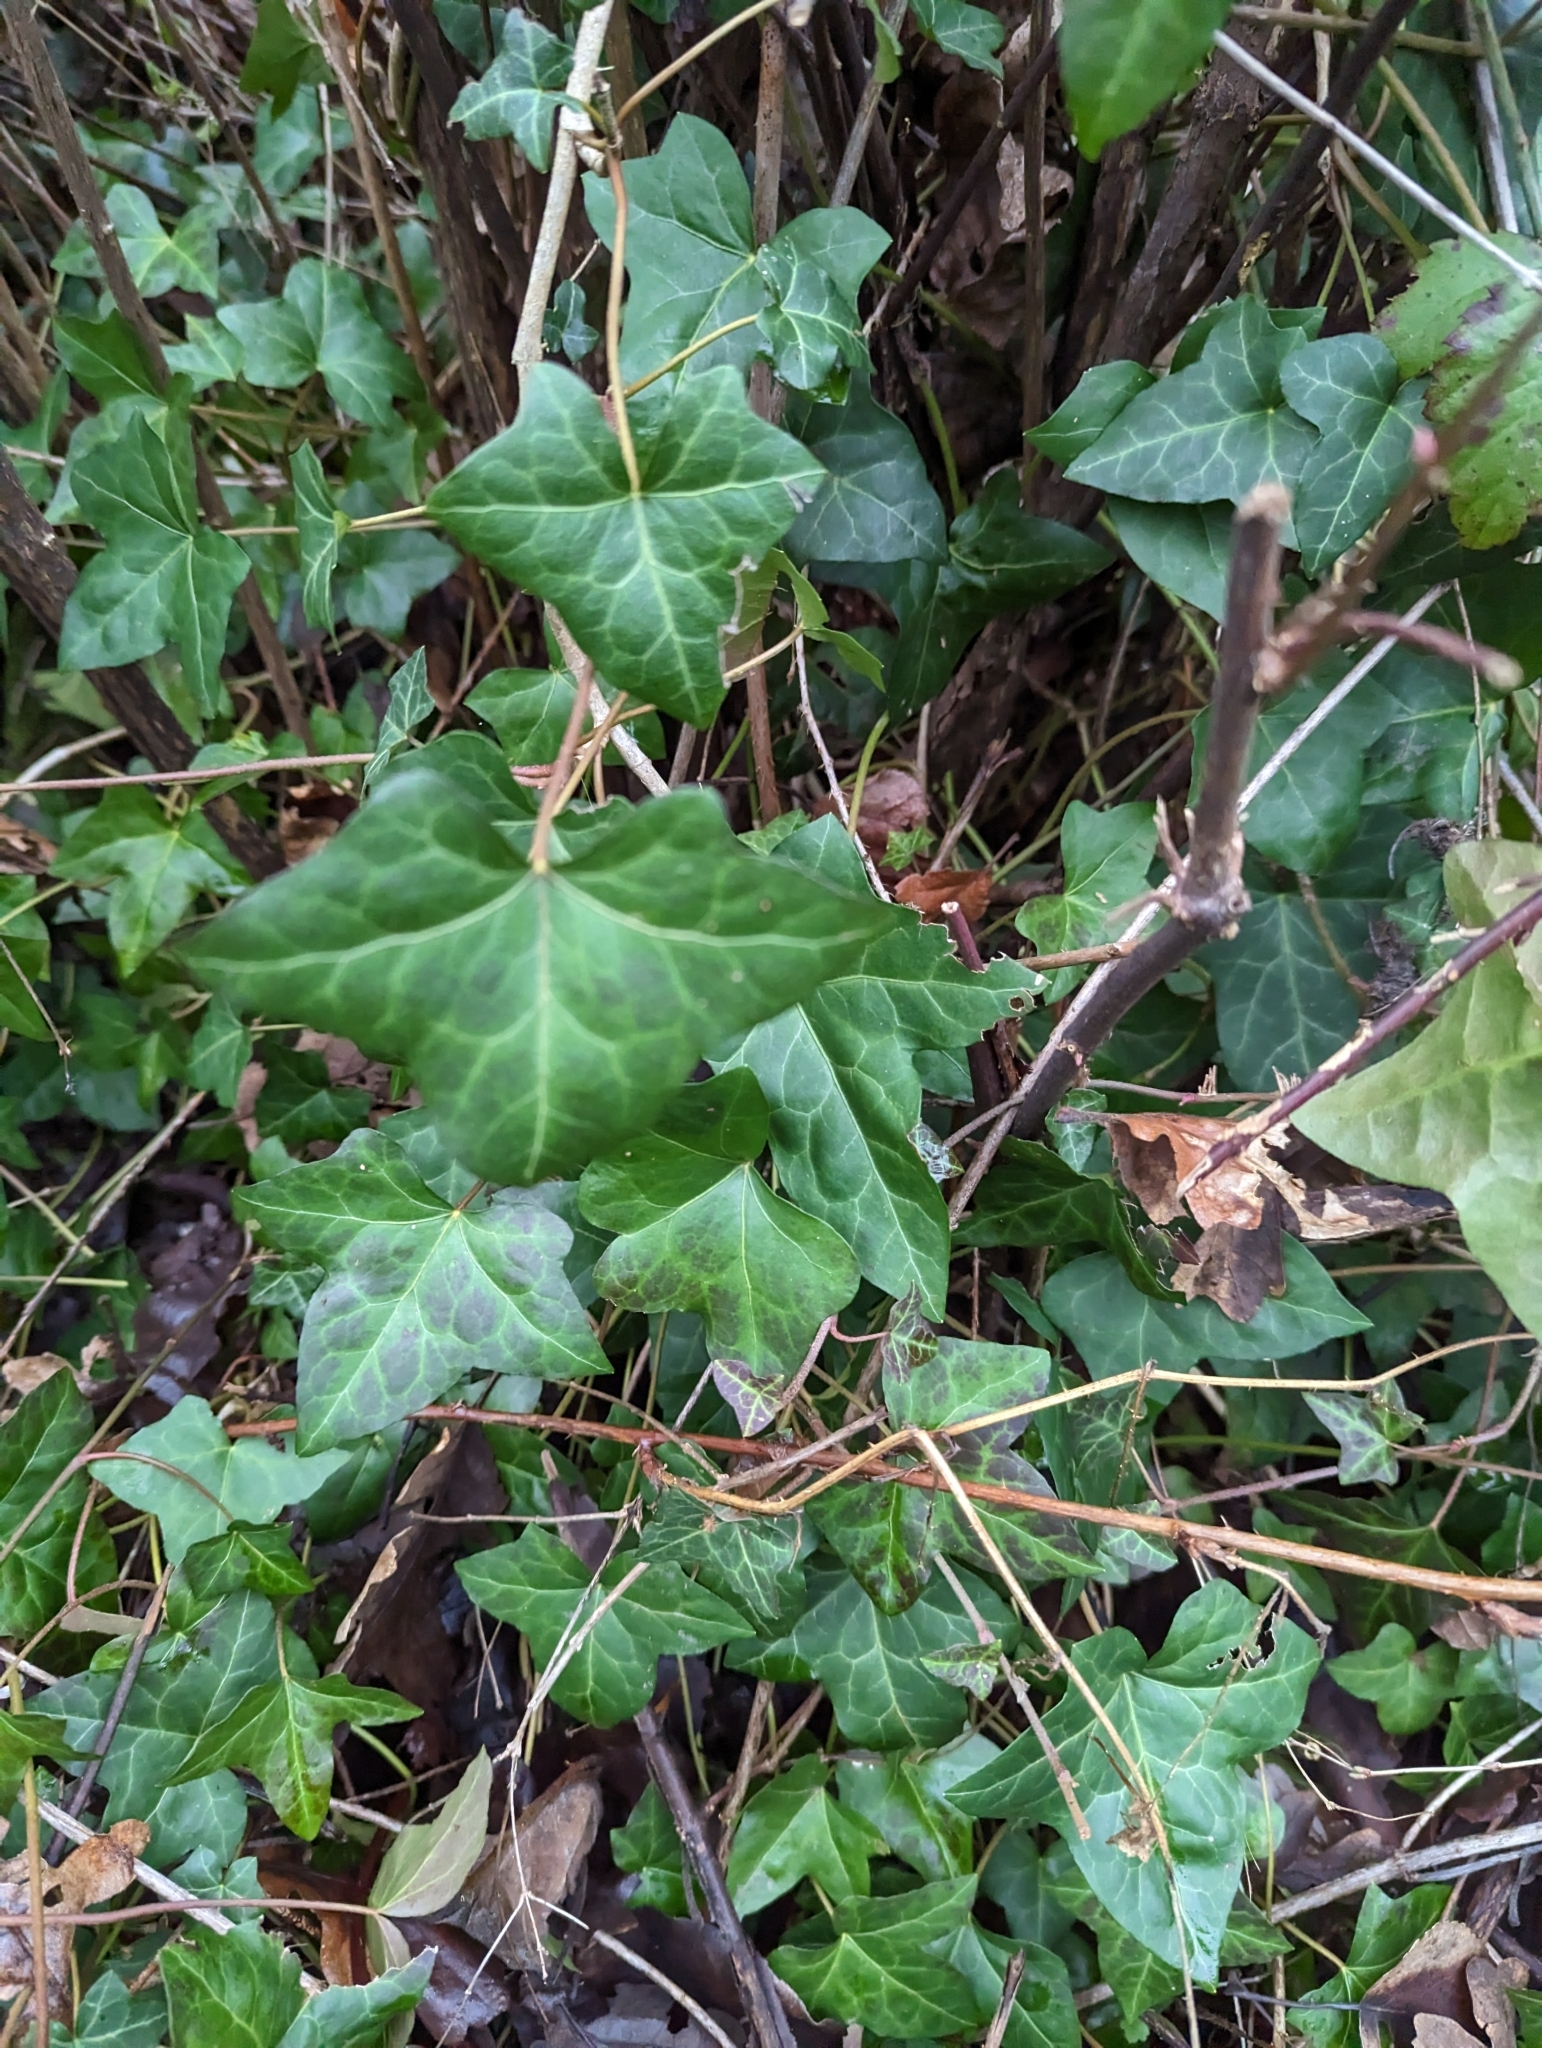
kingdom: Plantae
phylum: Tracheophyta
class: Magnoliopsida
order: Apiales
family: Araliaceae
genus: Hedera
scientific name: Hedera helix
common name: Ivy
